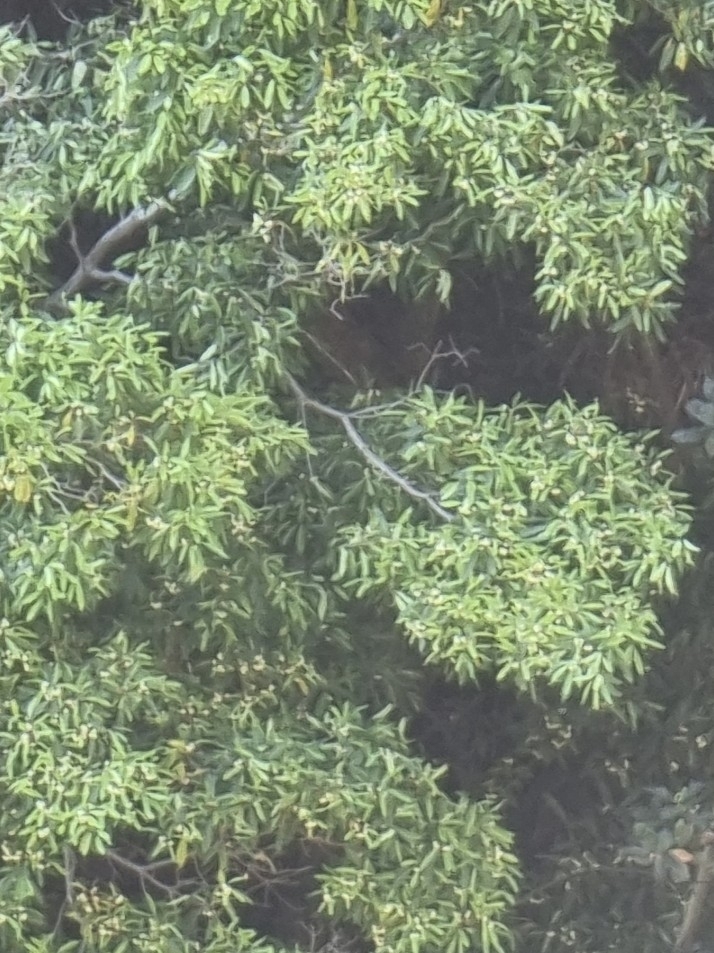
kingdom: Plantae
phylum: Tracheophyta
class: Magnoliopsida
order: Apiales
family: Pittosporaceae
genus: Pittosporum
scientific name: Pittosporum undulatum
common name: Australian cheesewood
